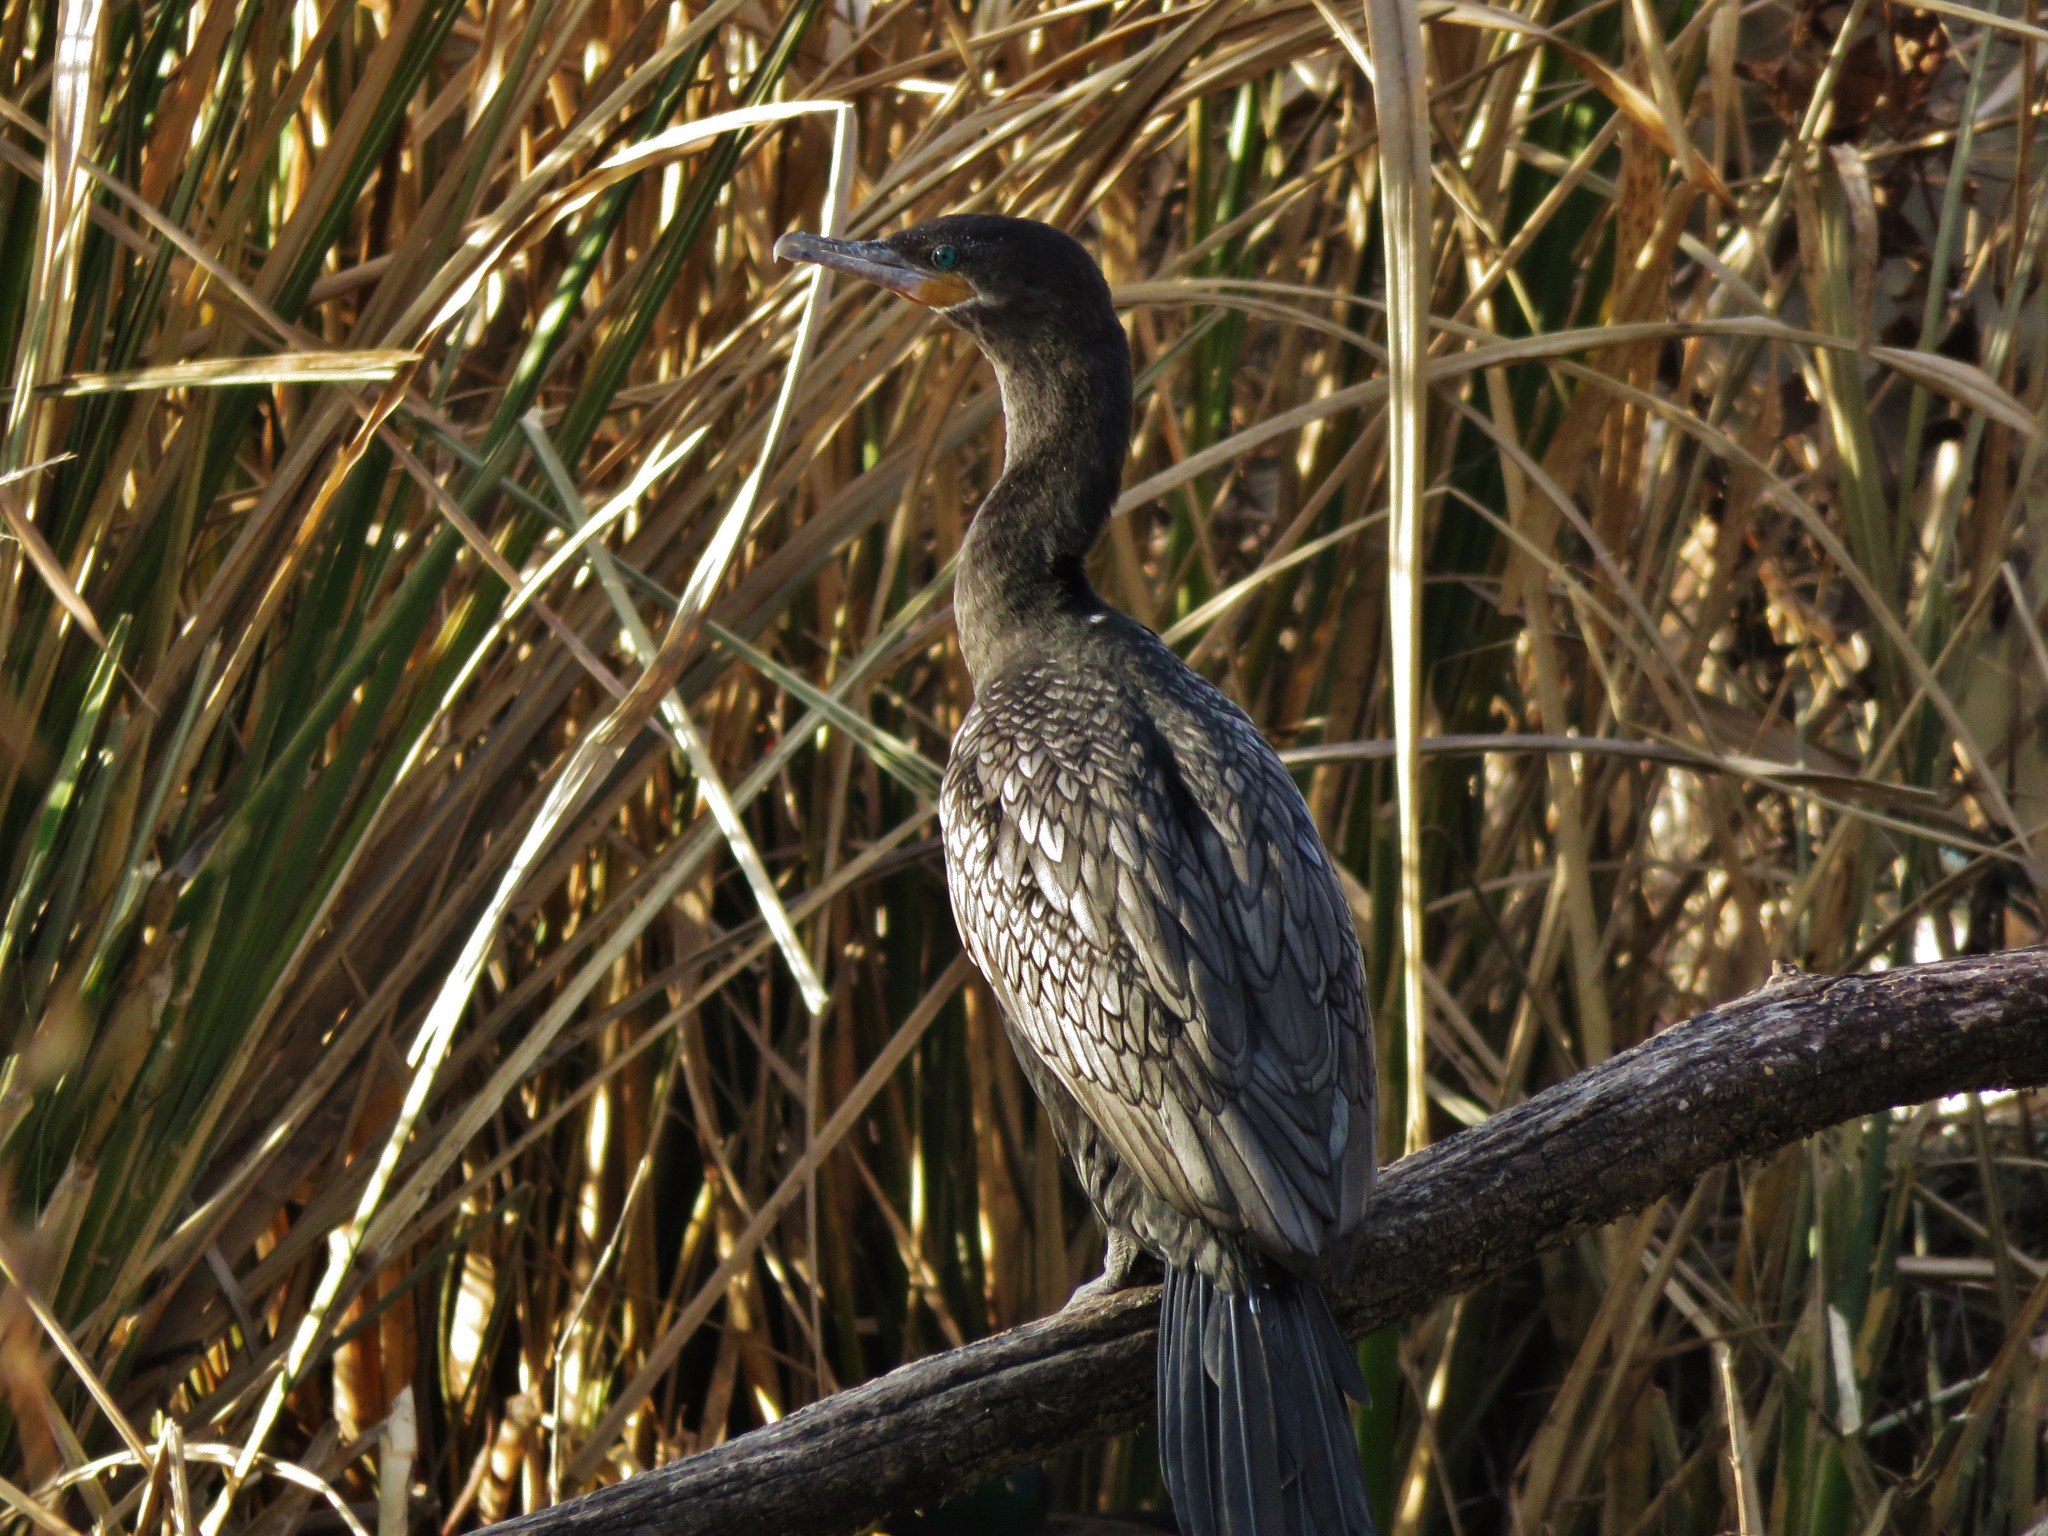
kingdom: Animalia
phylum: Chordata
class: Aves
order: Suliformes
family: Phalacrocoracidae
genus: Phalacrocorax
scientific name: Phalacrocorax brasilianus
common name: Neotropic cormorant
